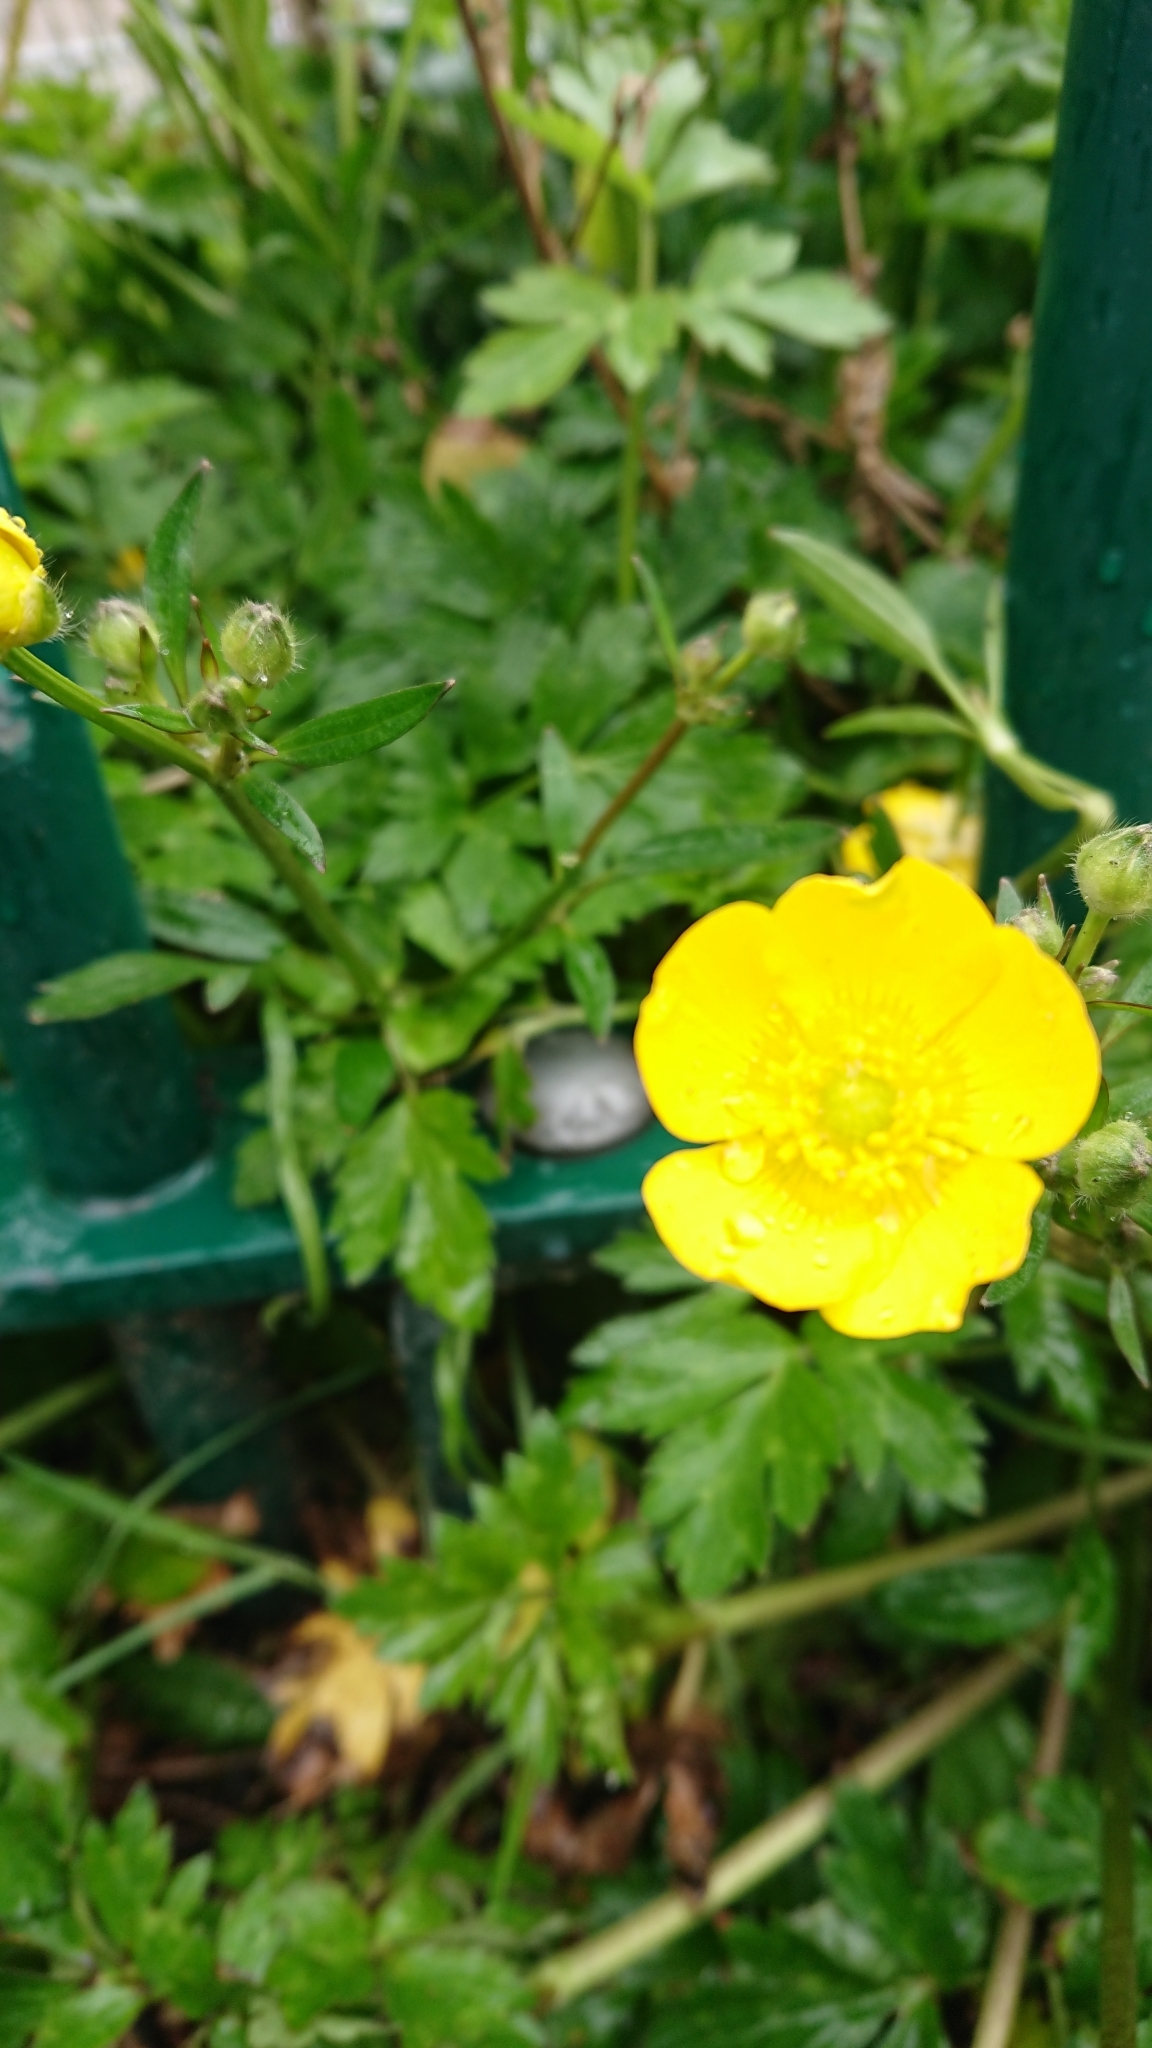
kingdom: Plantae
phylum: Tracheophyta
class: Magnoliopsida
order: Ranunculales
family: Ranunculaceae
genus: Ranunculus
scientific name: Ranunculus repens
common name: Creeping buttercup
